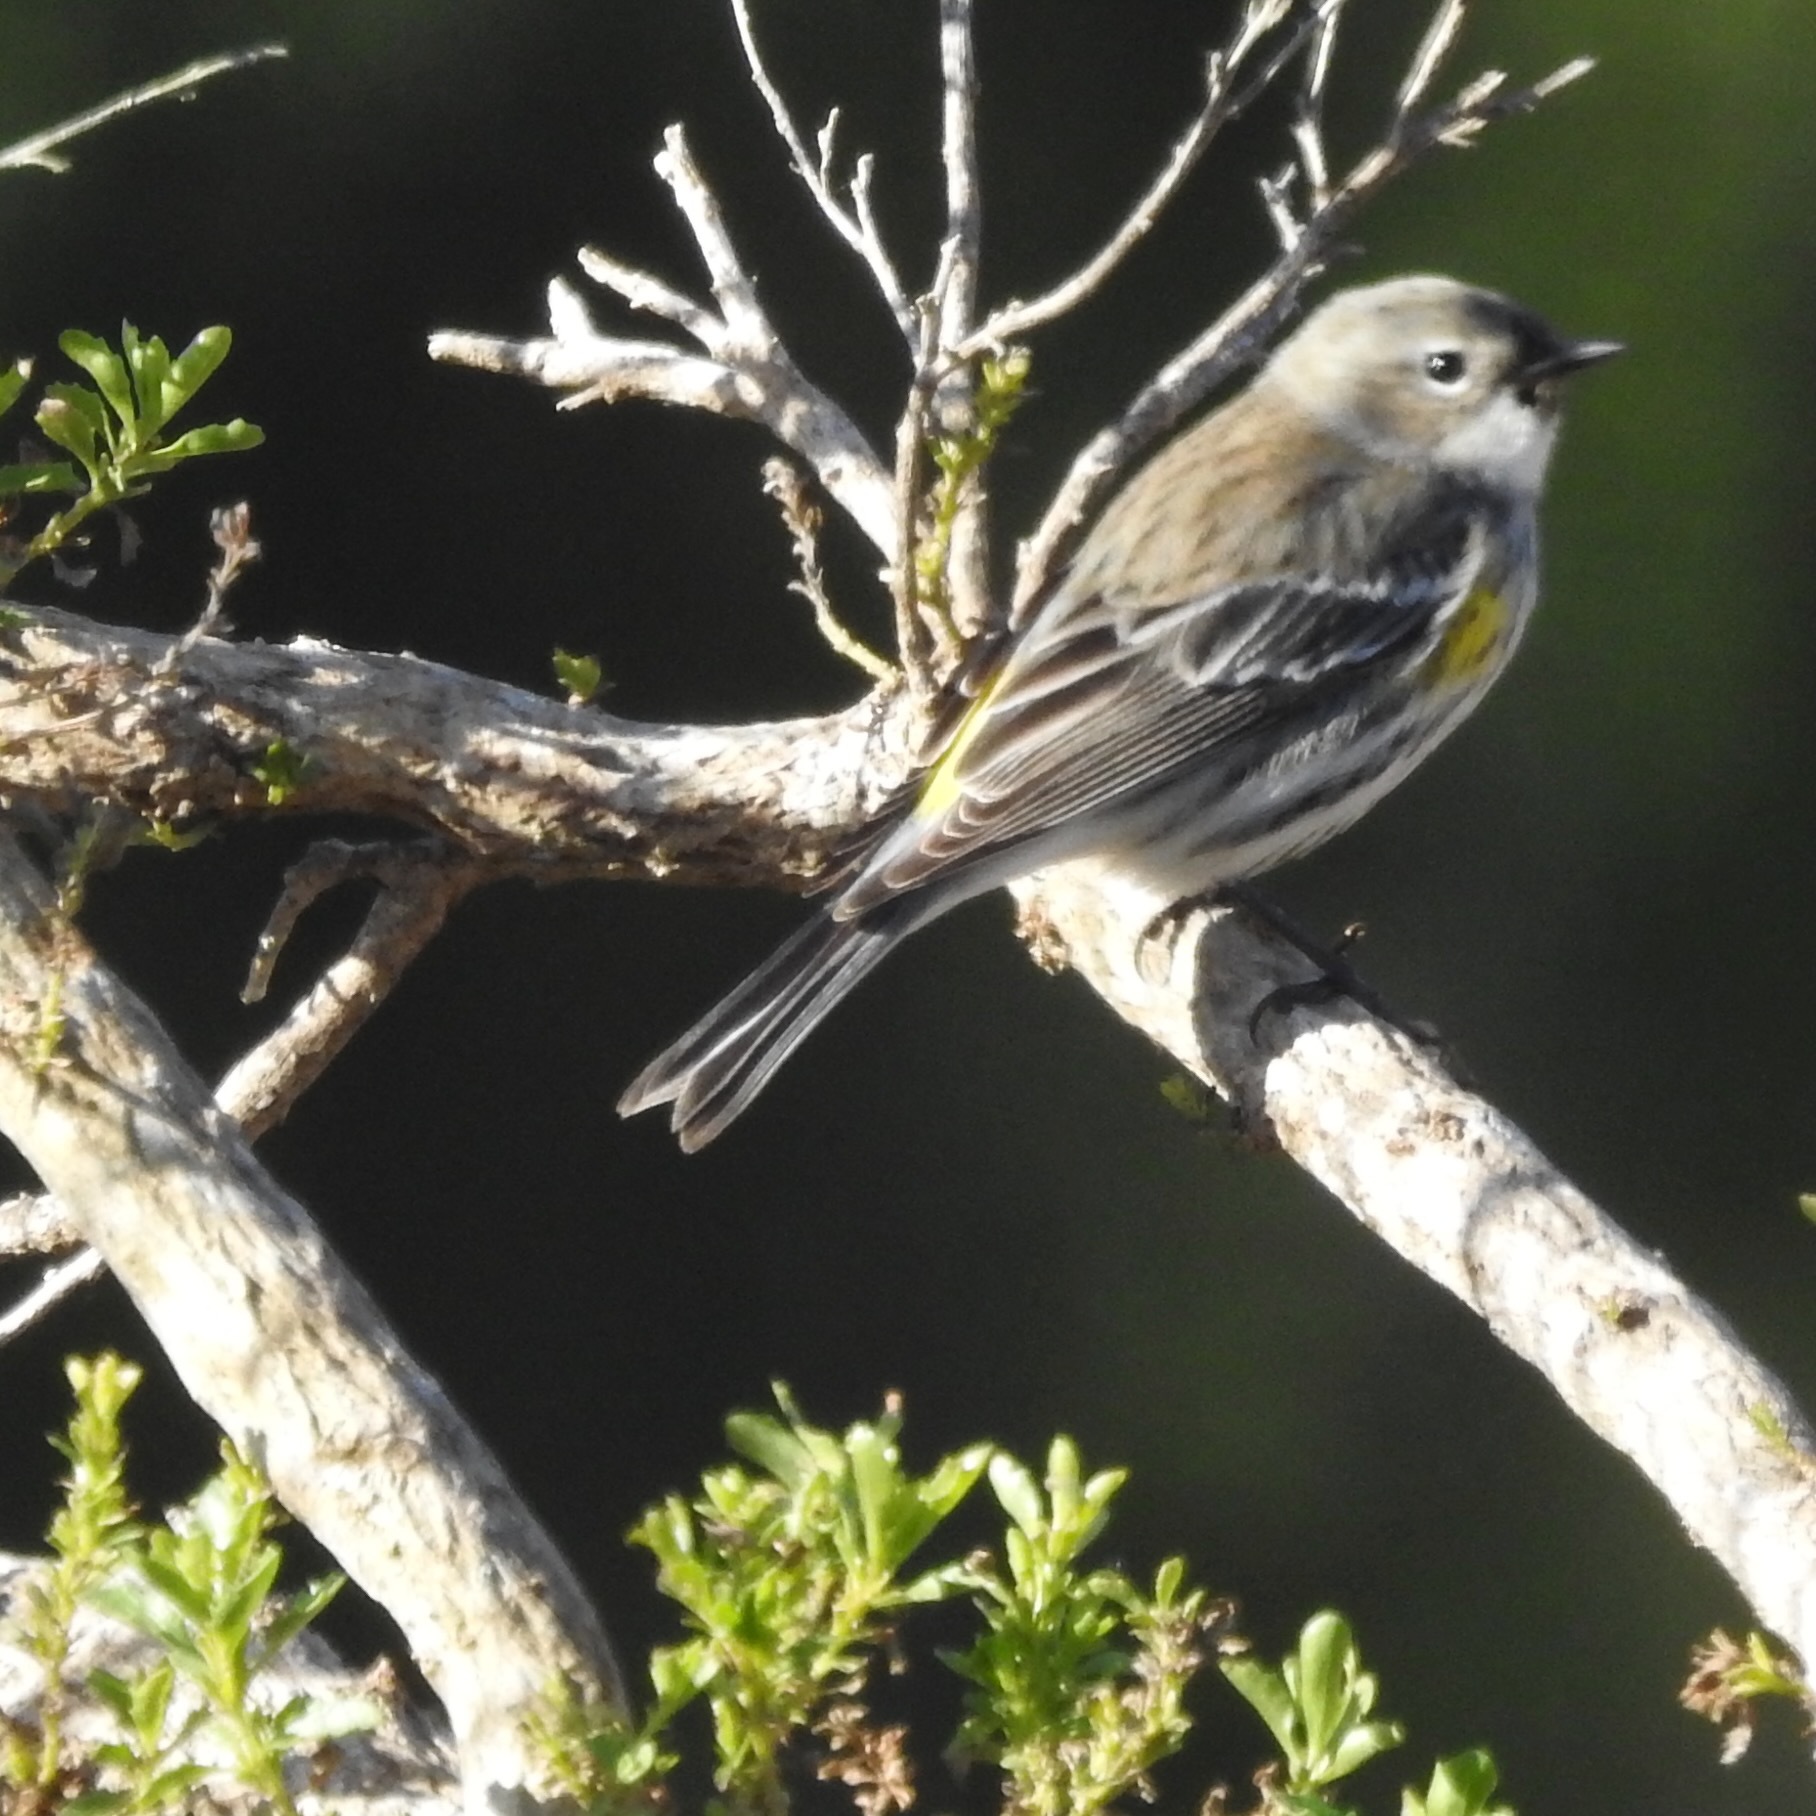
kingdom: Animalia
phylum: Chordata
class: Aves
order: Passeriformes
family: Parulidae
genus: Setophaga
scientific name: Setophaga coronata
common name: Myrtle warbler
